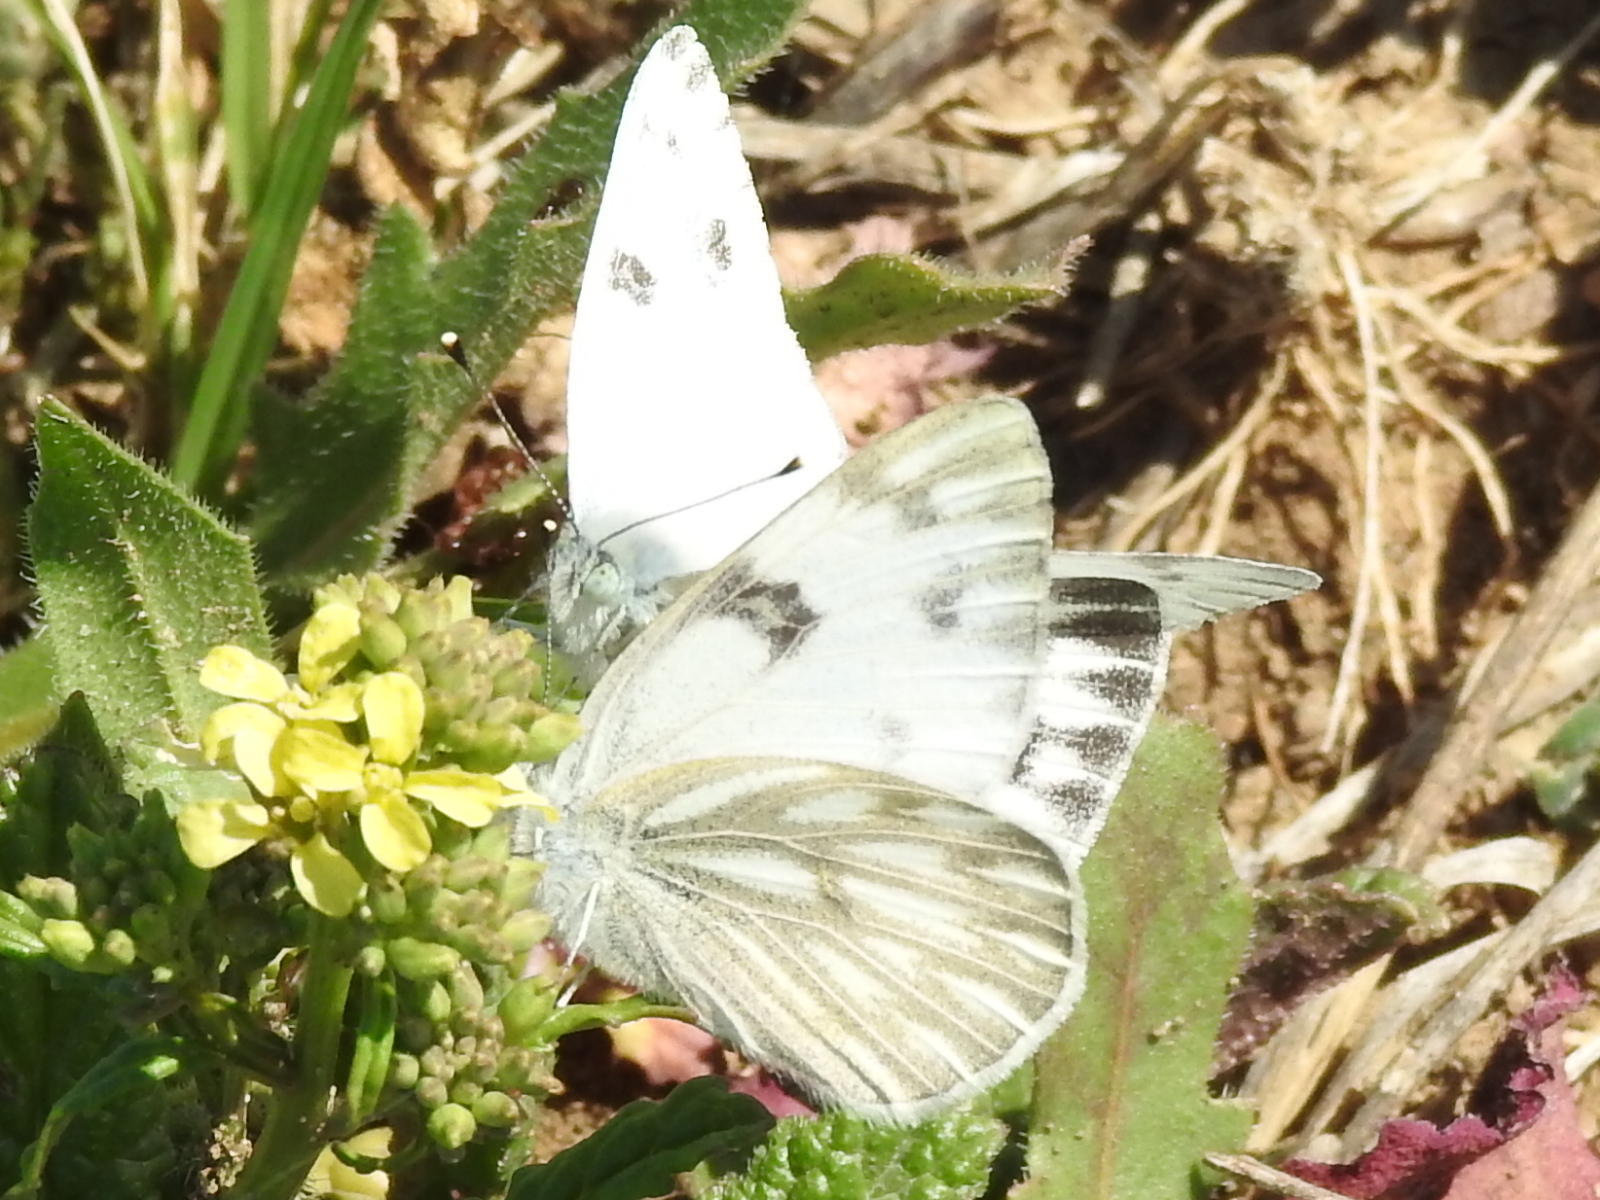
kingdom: Animalia
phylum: Arthropoda
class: Insecta
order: Lepidoptera
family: Pieridae
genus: Pontia
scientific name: Pontia protodice
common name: Checkered white
